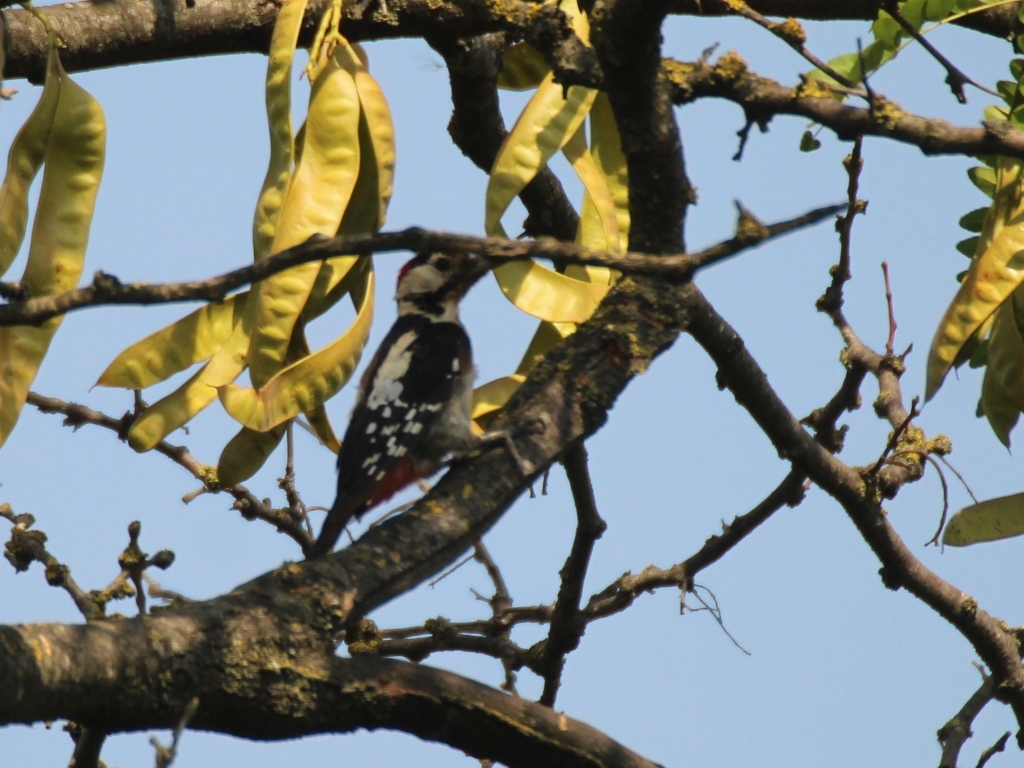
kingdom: Animalia
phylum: Chordata
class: Aves
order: Piciformes
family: Picidae
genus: Dendrocopos
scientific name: Dendrocopos major
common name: Great spotted woodpecker
